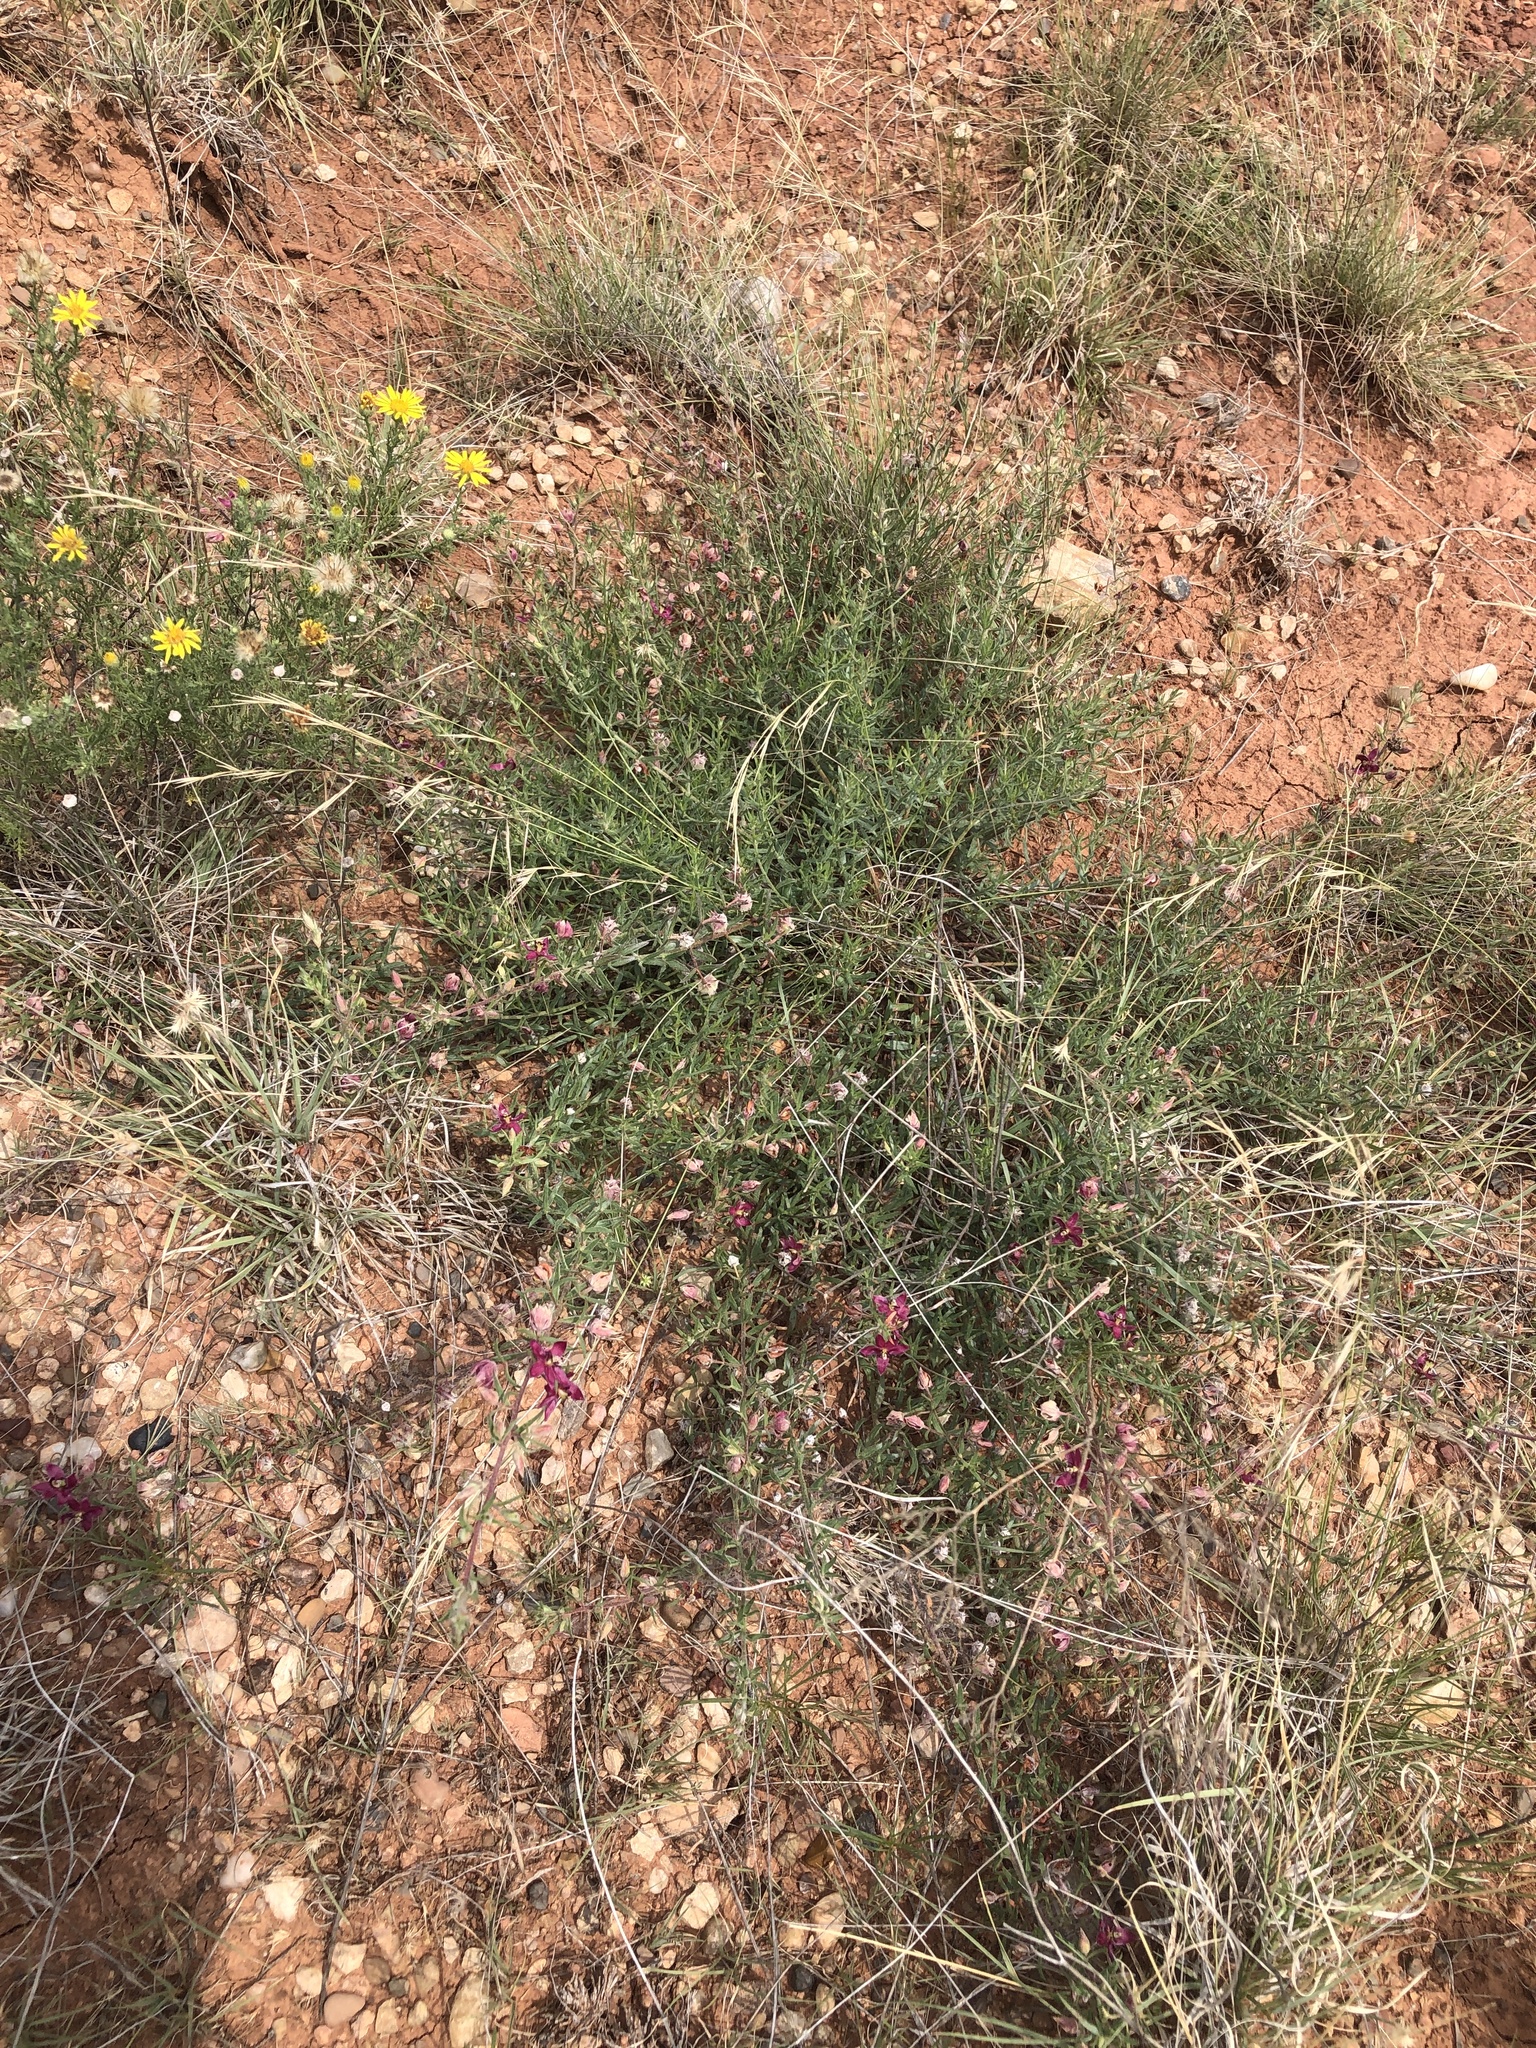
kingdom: Plantae
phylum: Tracheophyta
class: Magnoliopsida
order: Zygophyllales
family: Krameriaceae
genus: Krameria
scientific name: Krameria lanceolata
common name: Ratany
